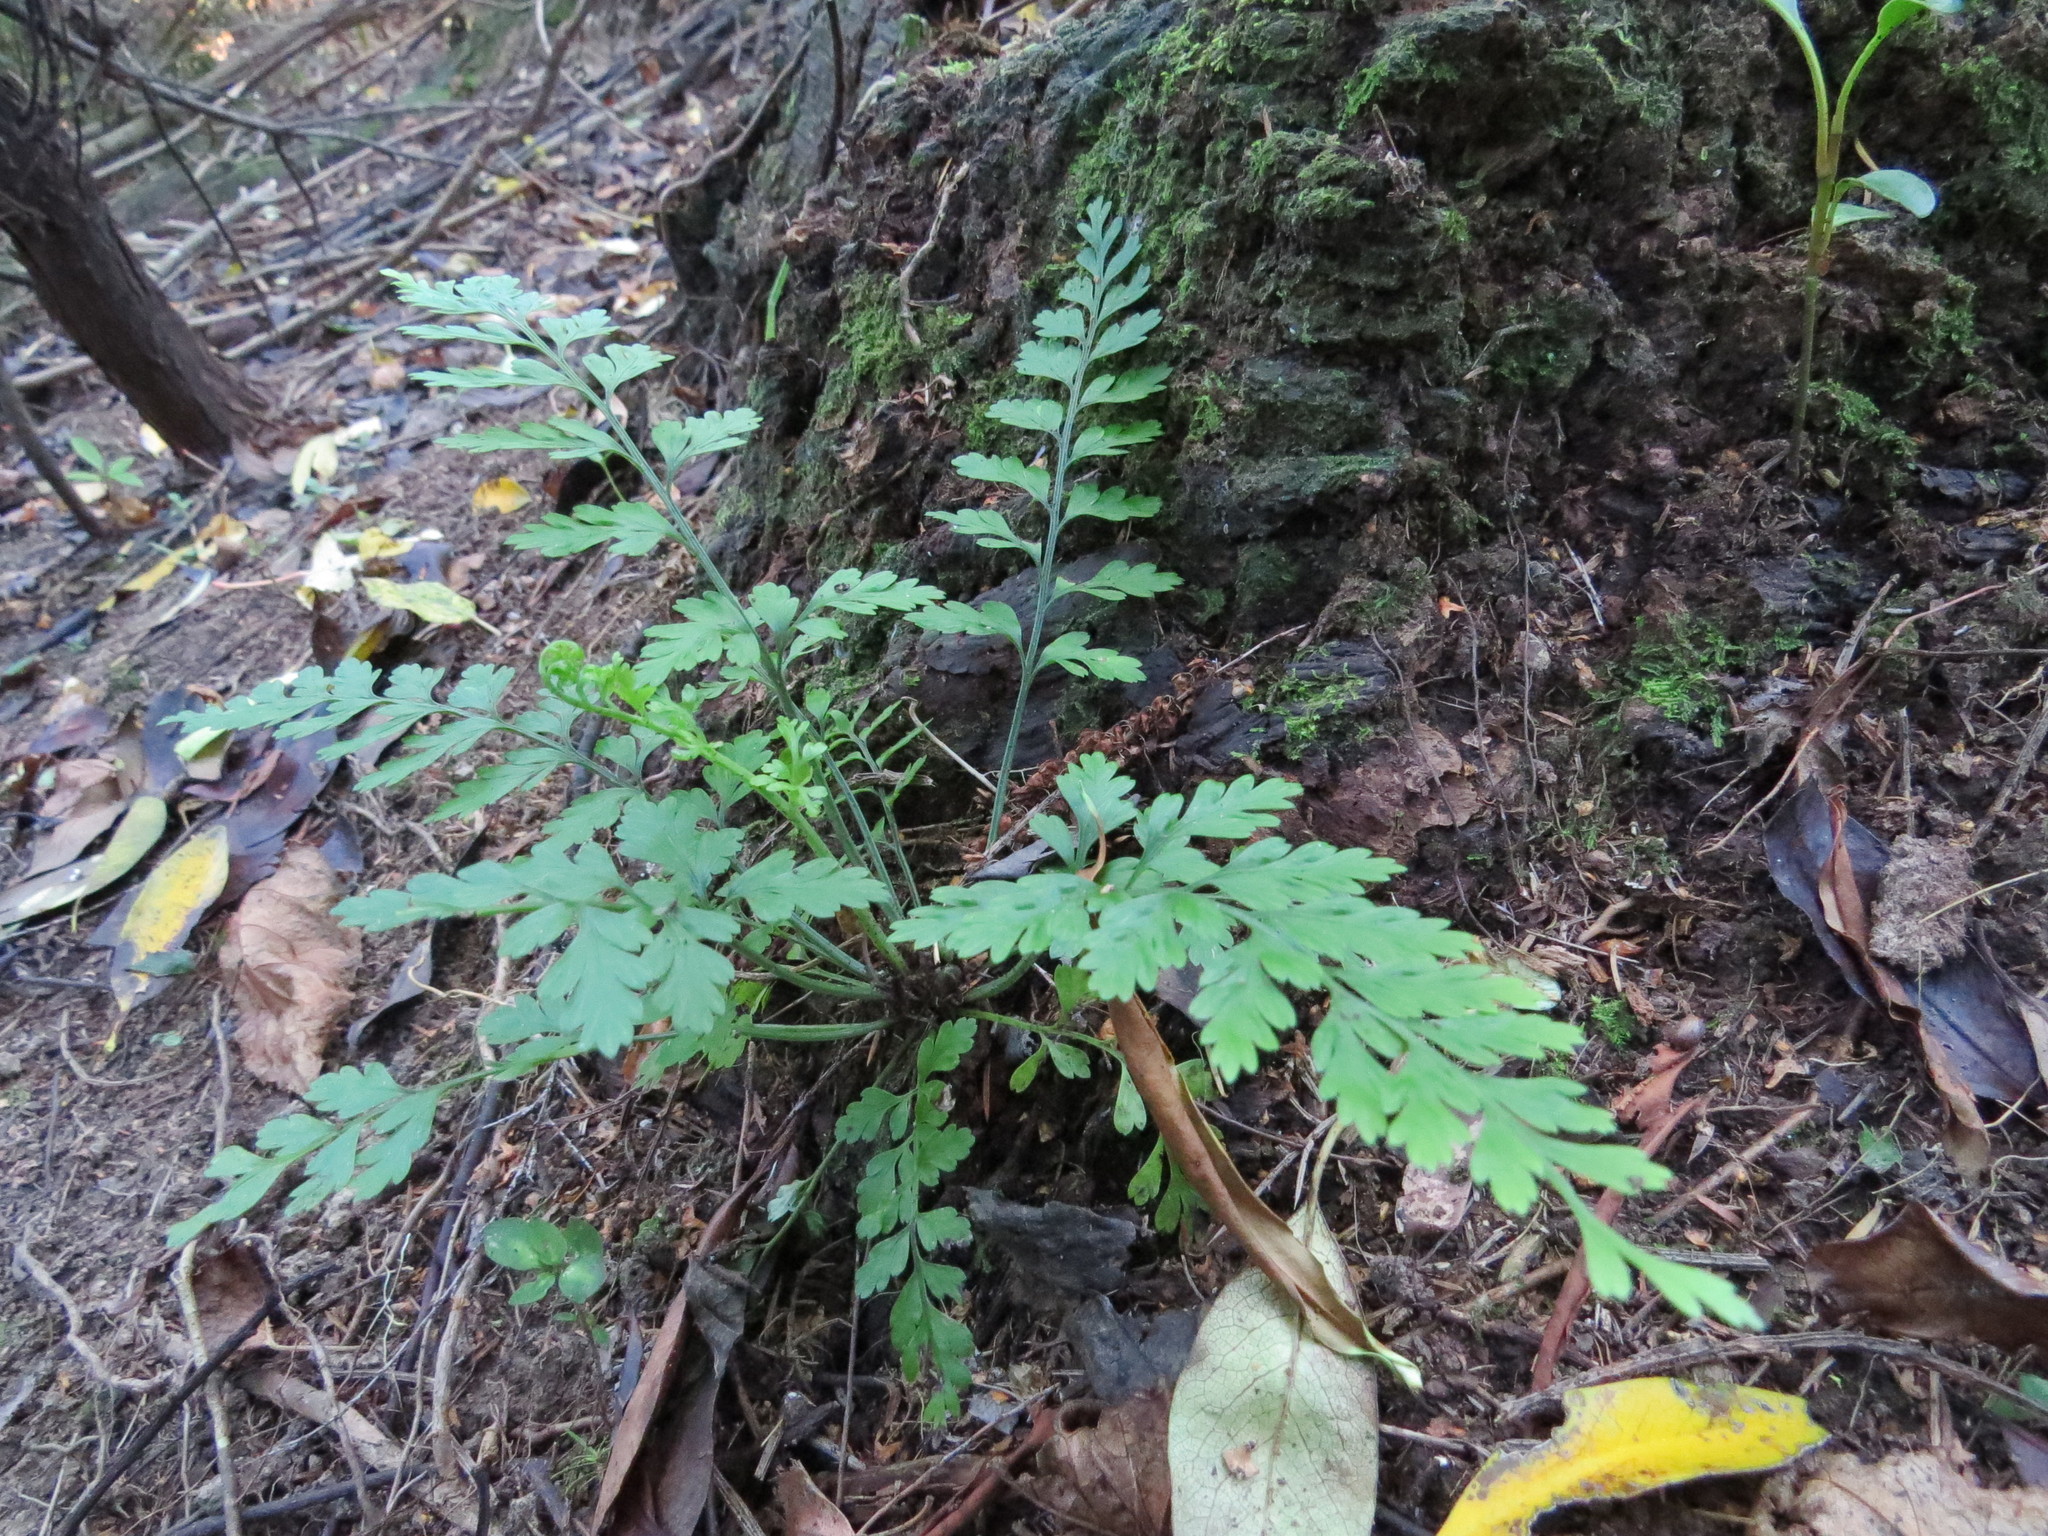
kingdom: Plantae
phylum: Tracheophyta
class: Polypodiopsida
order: Polypodiales
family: Aspleniaceae
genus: Asplenium
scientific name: Asplenium
